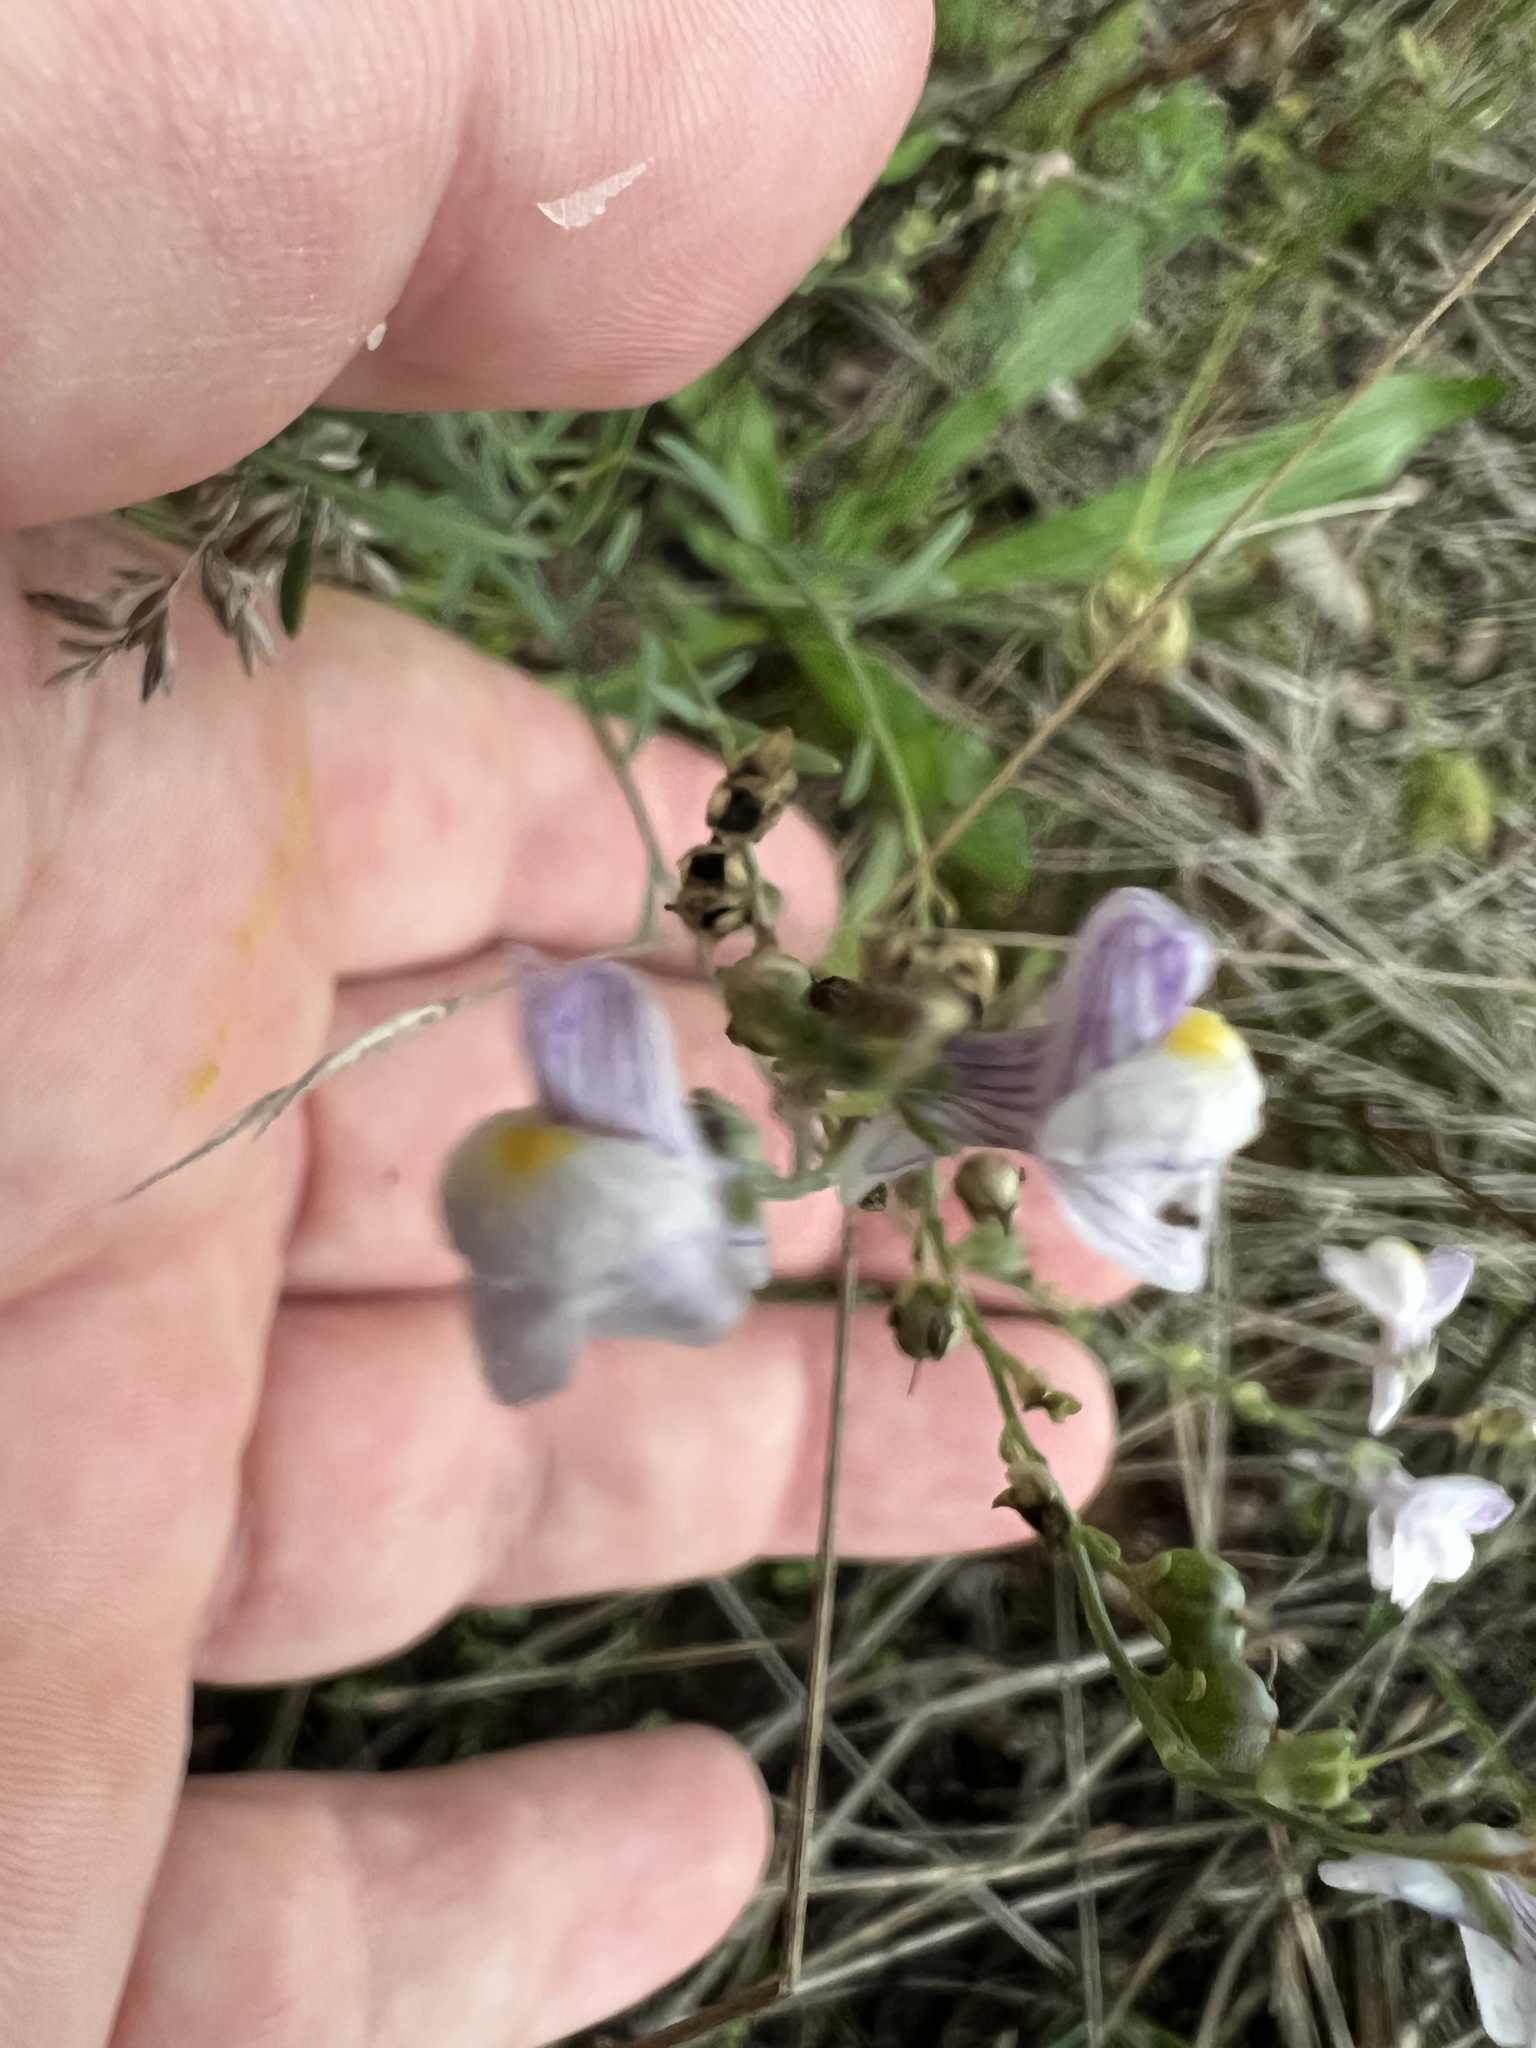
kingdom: Plantae
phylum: Tracheophyta
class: Magnoliopsida
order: Lamiales
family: Plantaginaceae
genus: Linaria
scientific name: Linaria repens
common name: Pale toadflax
